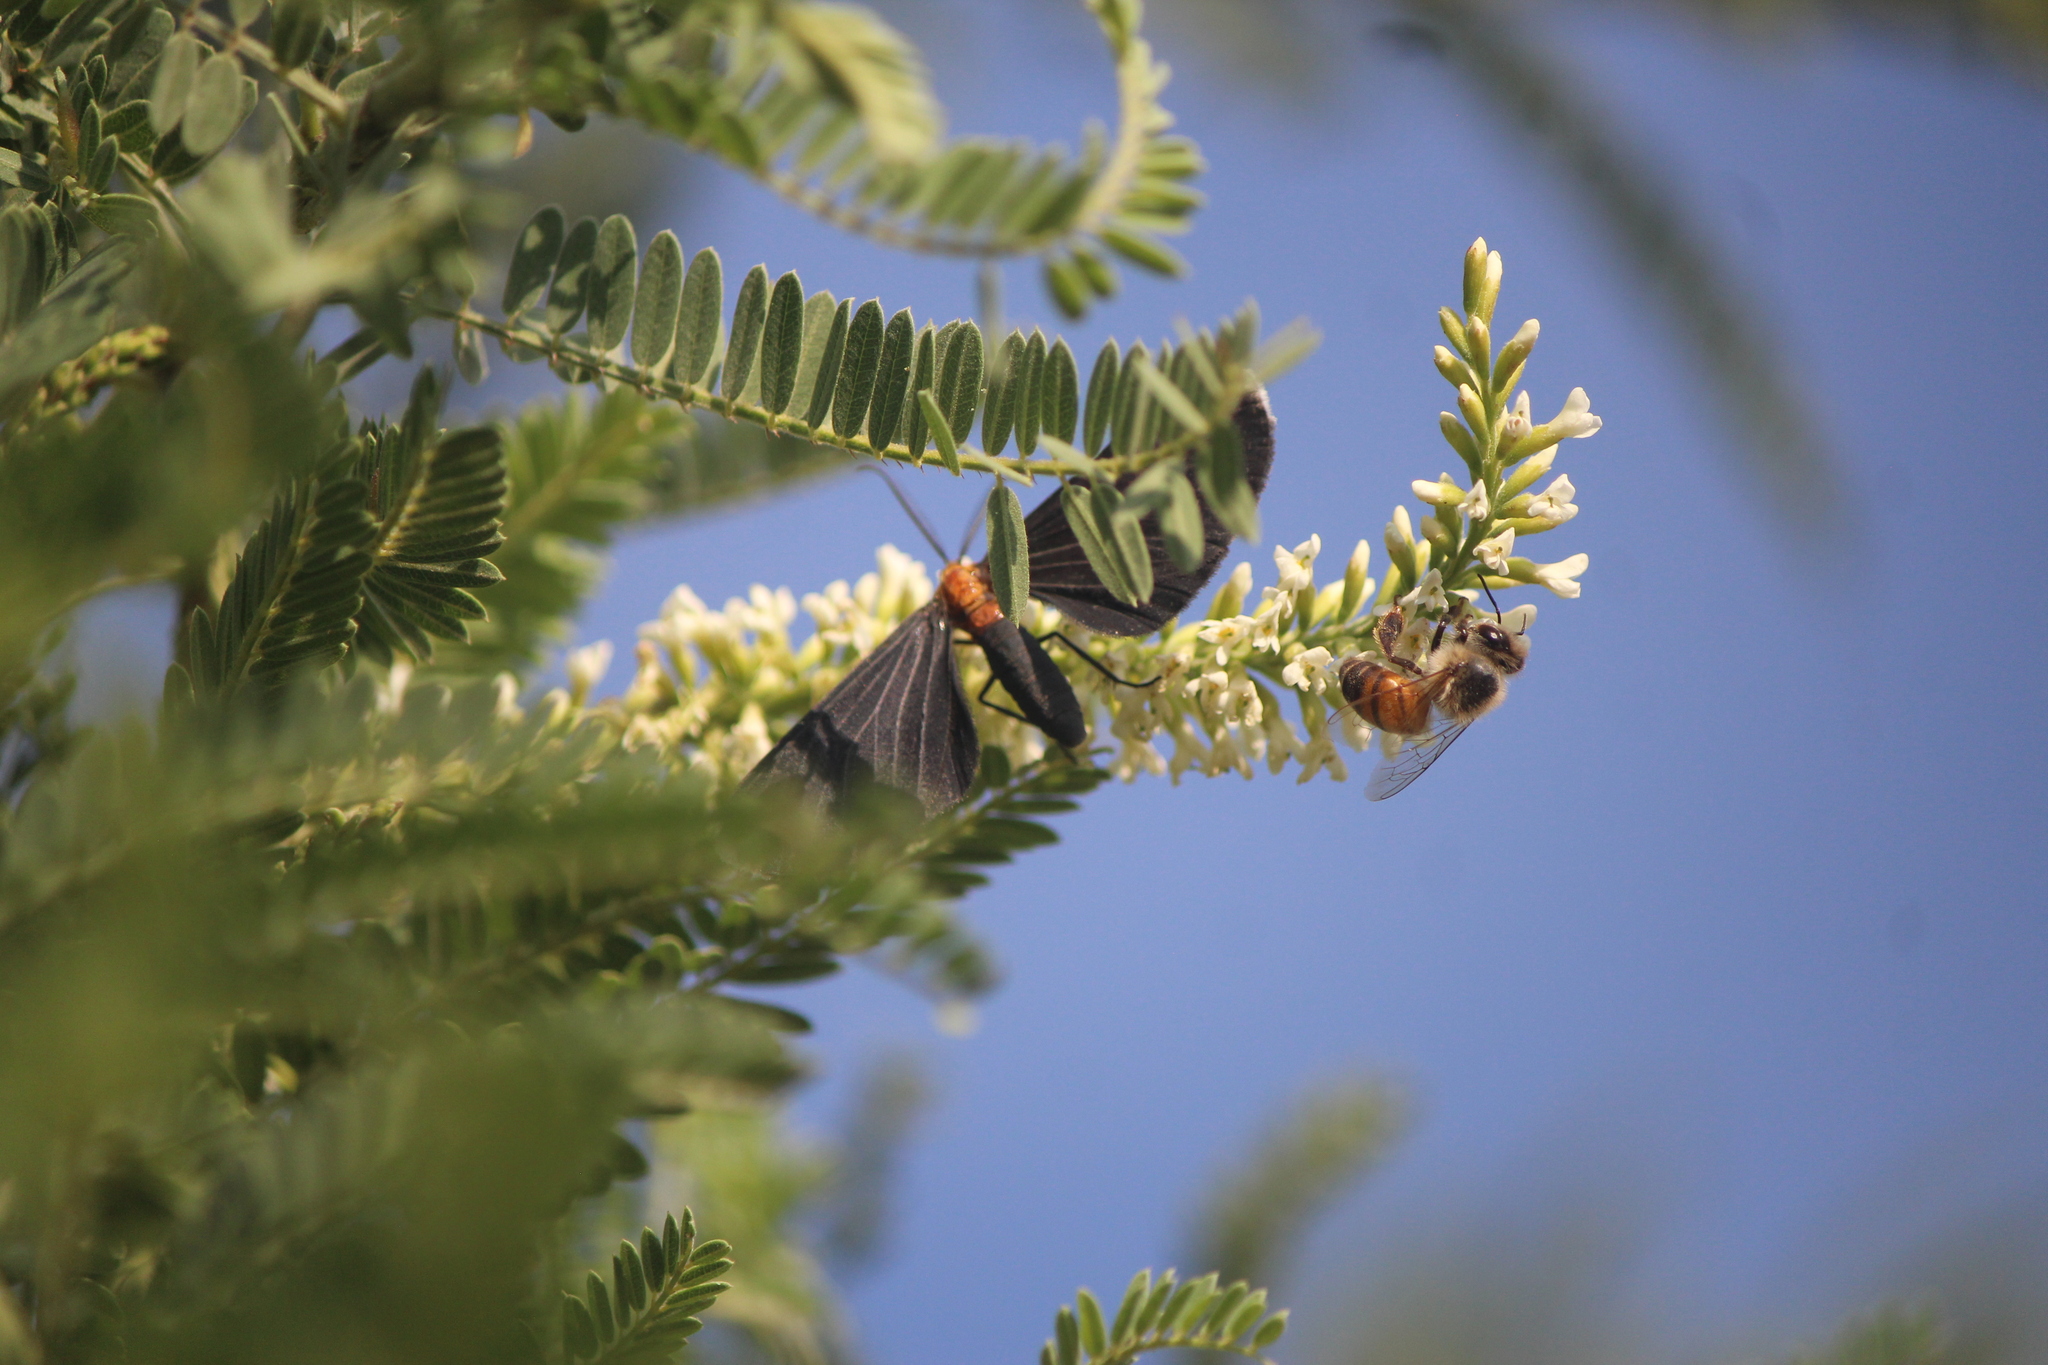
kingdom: Animalia
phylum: Arthropoda
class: Insecta
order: Lepidoptera
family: Geometridae
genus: Melanchroia
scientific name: Melanchroia chephise
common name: White-tipped black
